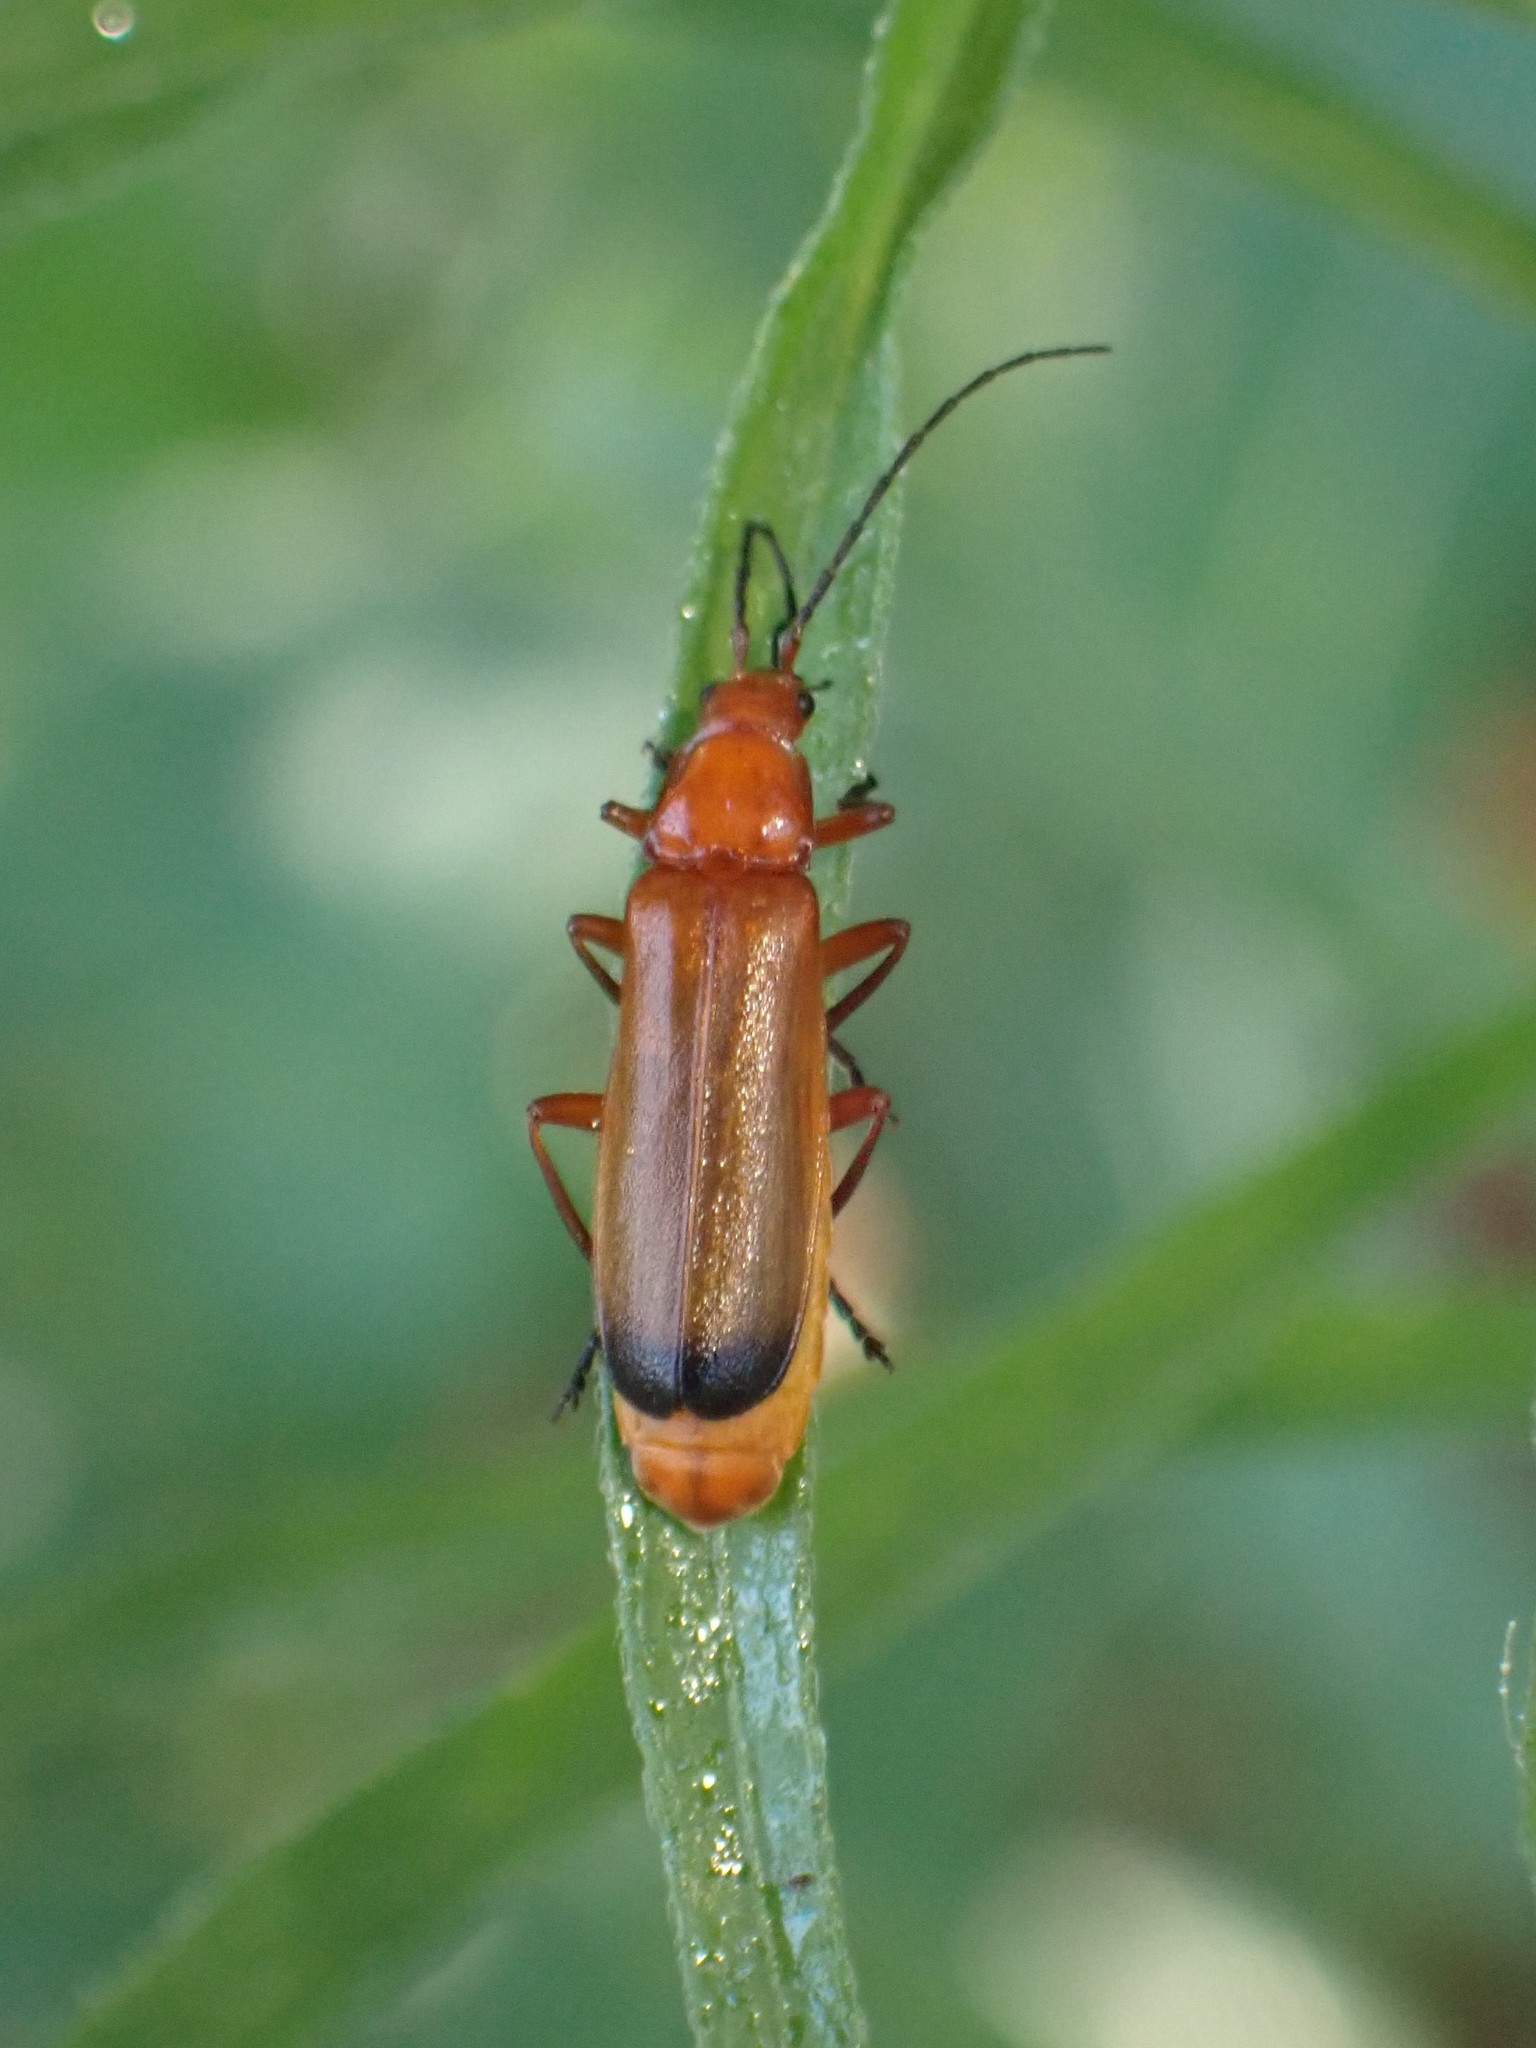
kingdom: Animalia
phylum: Arthropoda
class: Insecta
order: Coleoptera
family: Cantharidae
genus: Rhagonycha
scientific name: Rhagonycha fulva
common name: Common red soldier beetle
